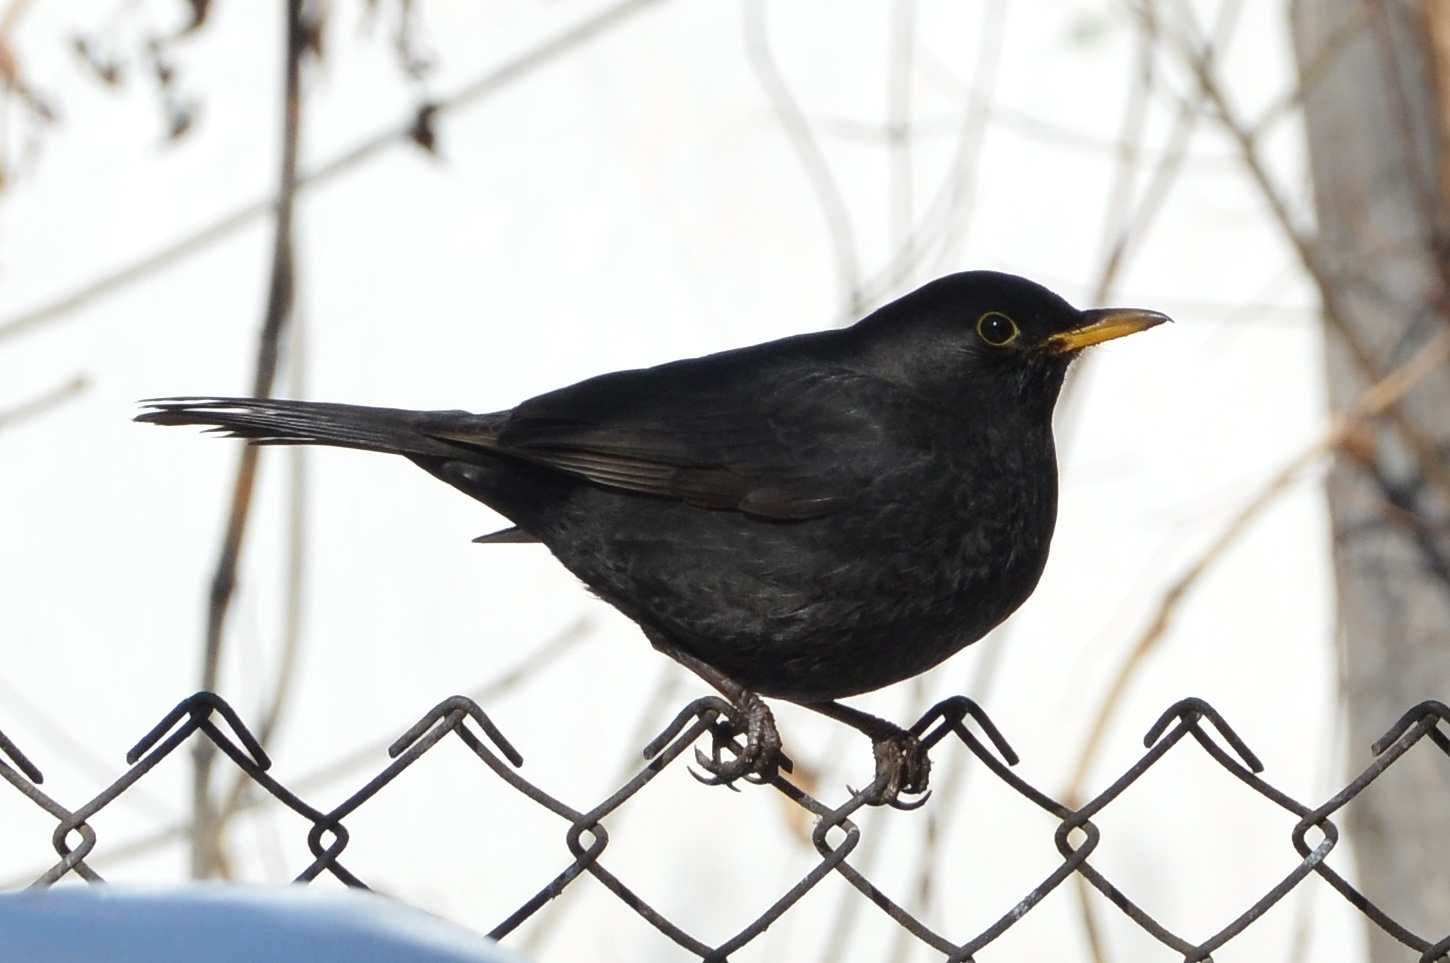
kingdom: Animalia
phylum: Chordata
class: Aves
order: Passeriformes
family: Turdidae
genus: Turdus
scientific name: Turdus merula
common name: Common blackbird
